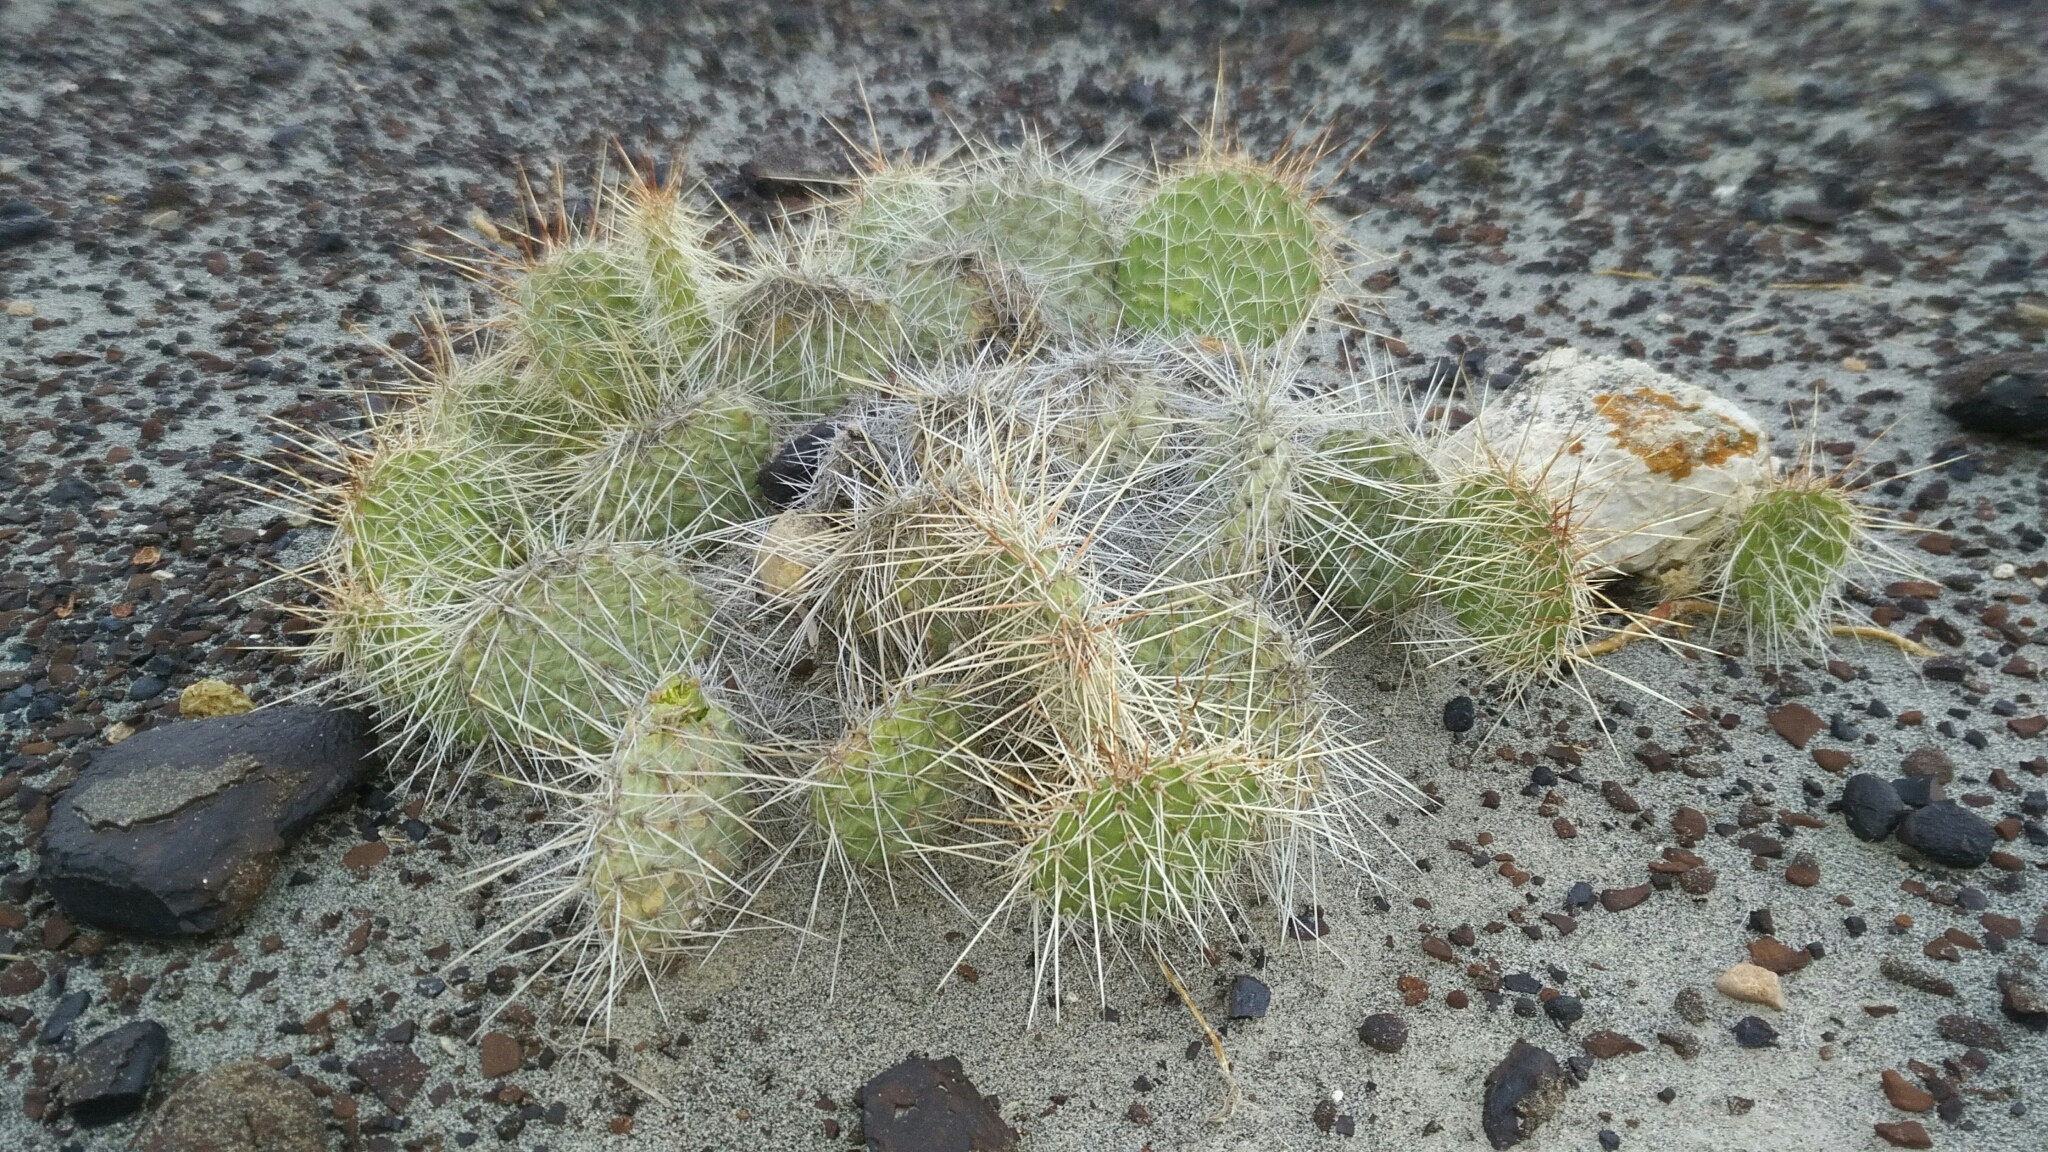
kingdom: Plantae
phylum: Tracheophyta
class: Magnoliopsida
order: Caryophyllales
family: Cactaceae
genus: Opuntia
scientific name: Opuntia polyacantha
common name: Plains prickly-pear
